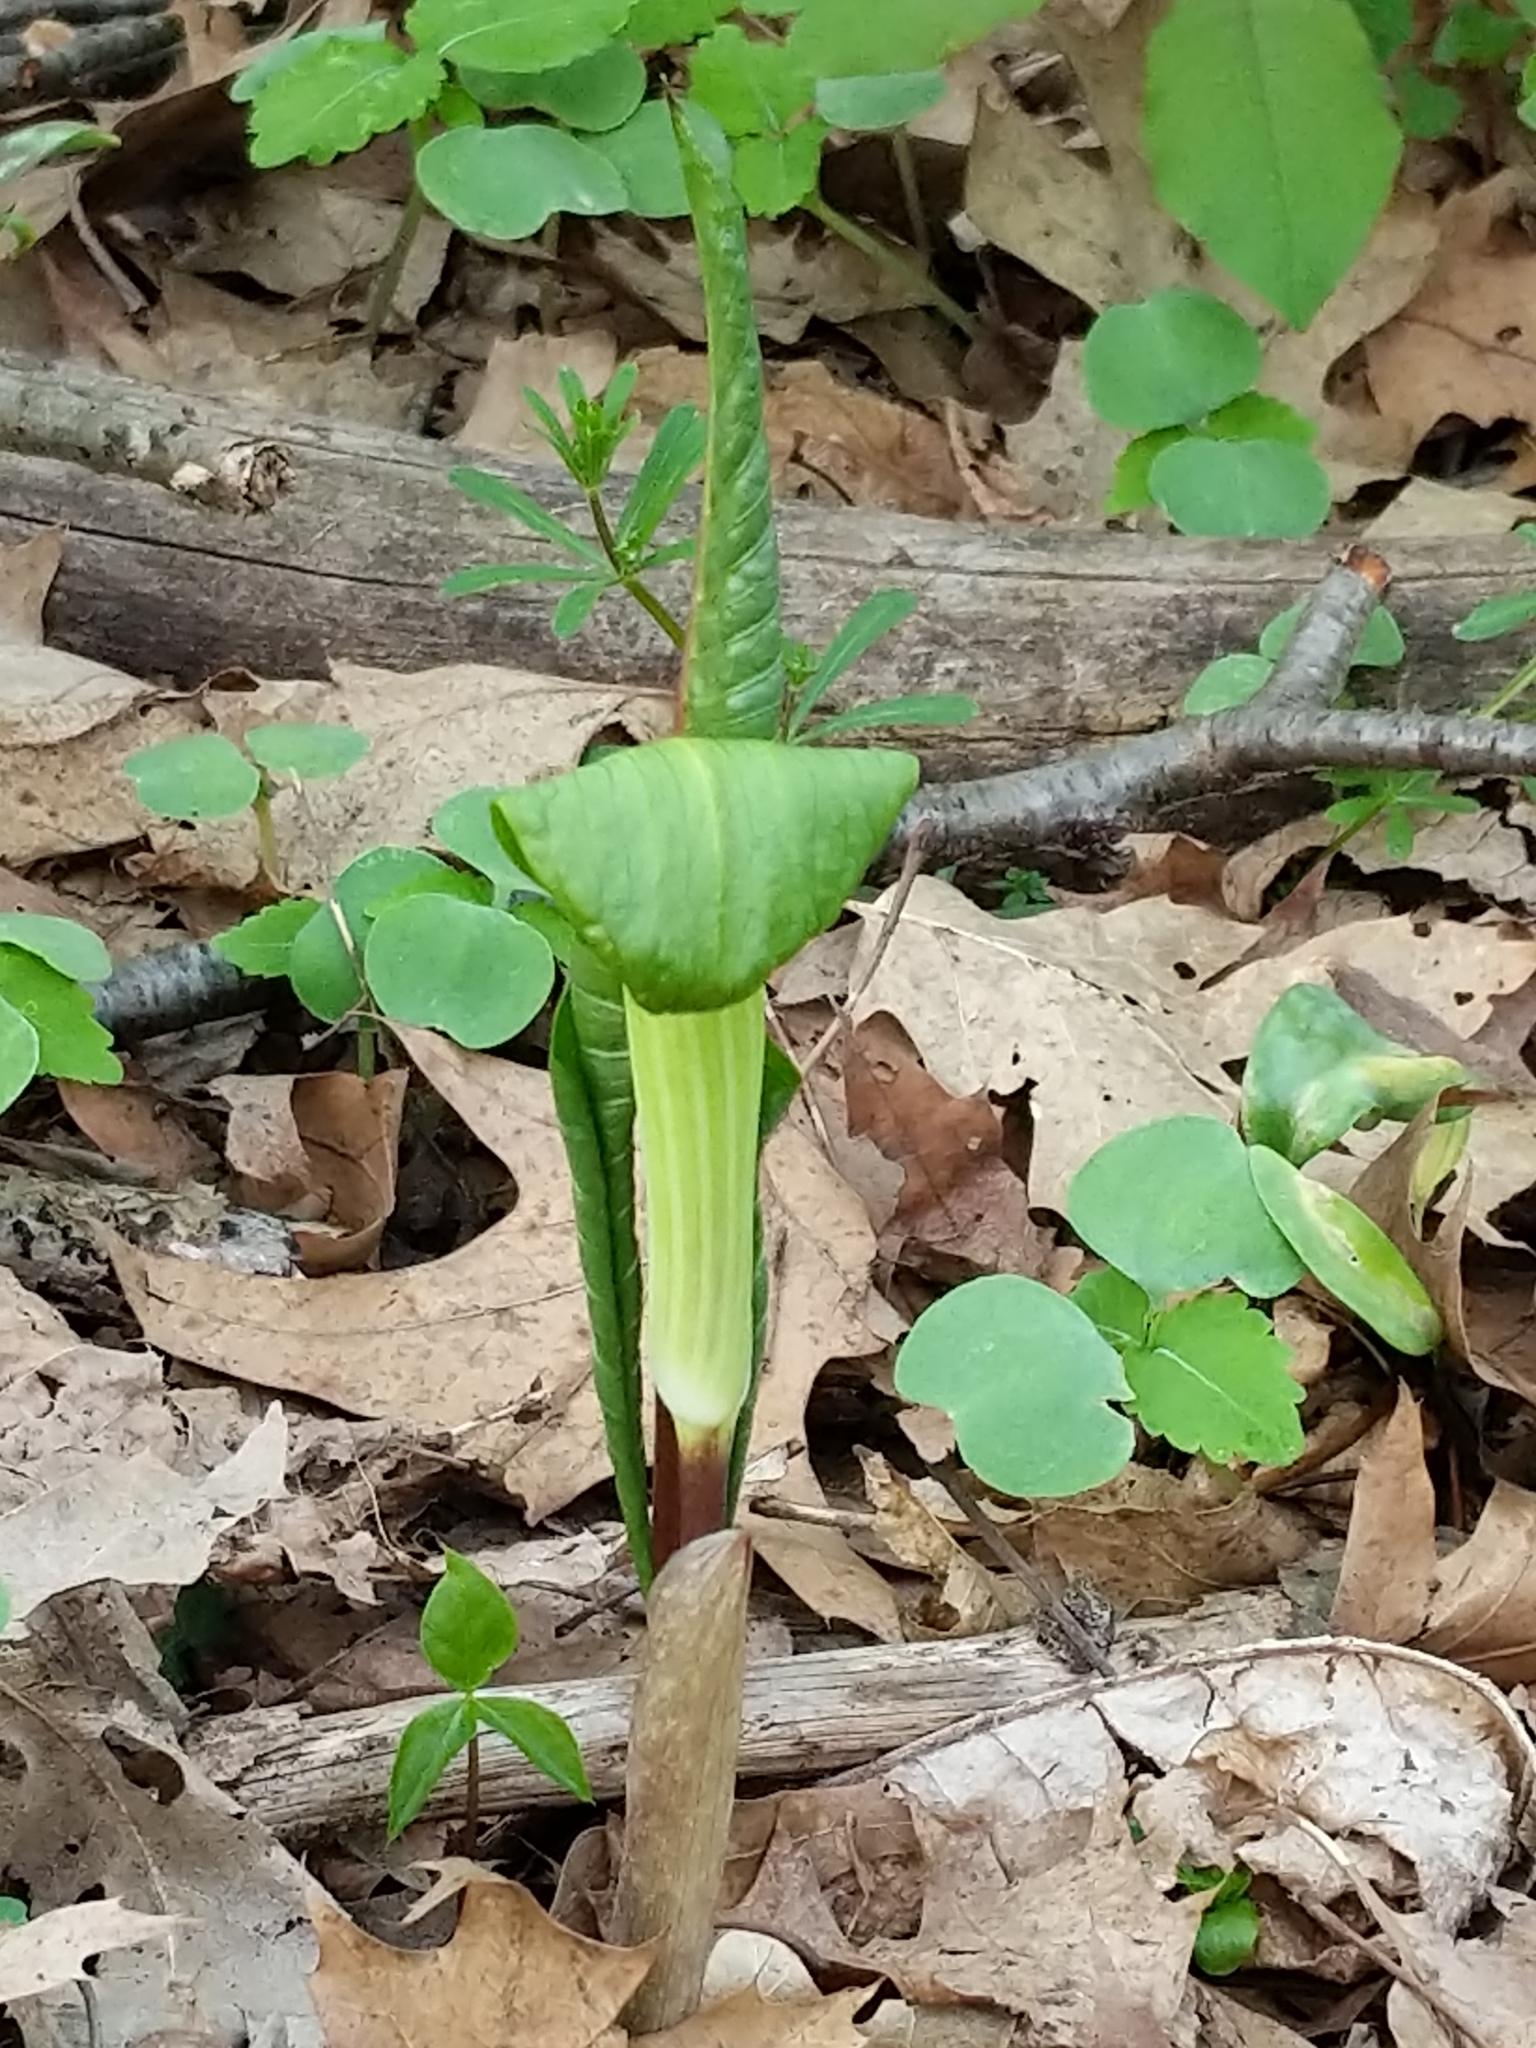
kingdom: Plantae
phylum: Tracheophyta
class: Liliopsida
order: Alismatales
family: Araceae
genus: Arisaema
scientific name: Arisaema triphyllum
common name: Jack-in-the-pulpit
